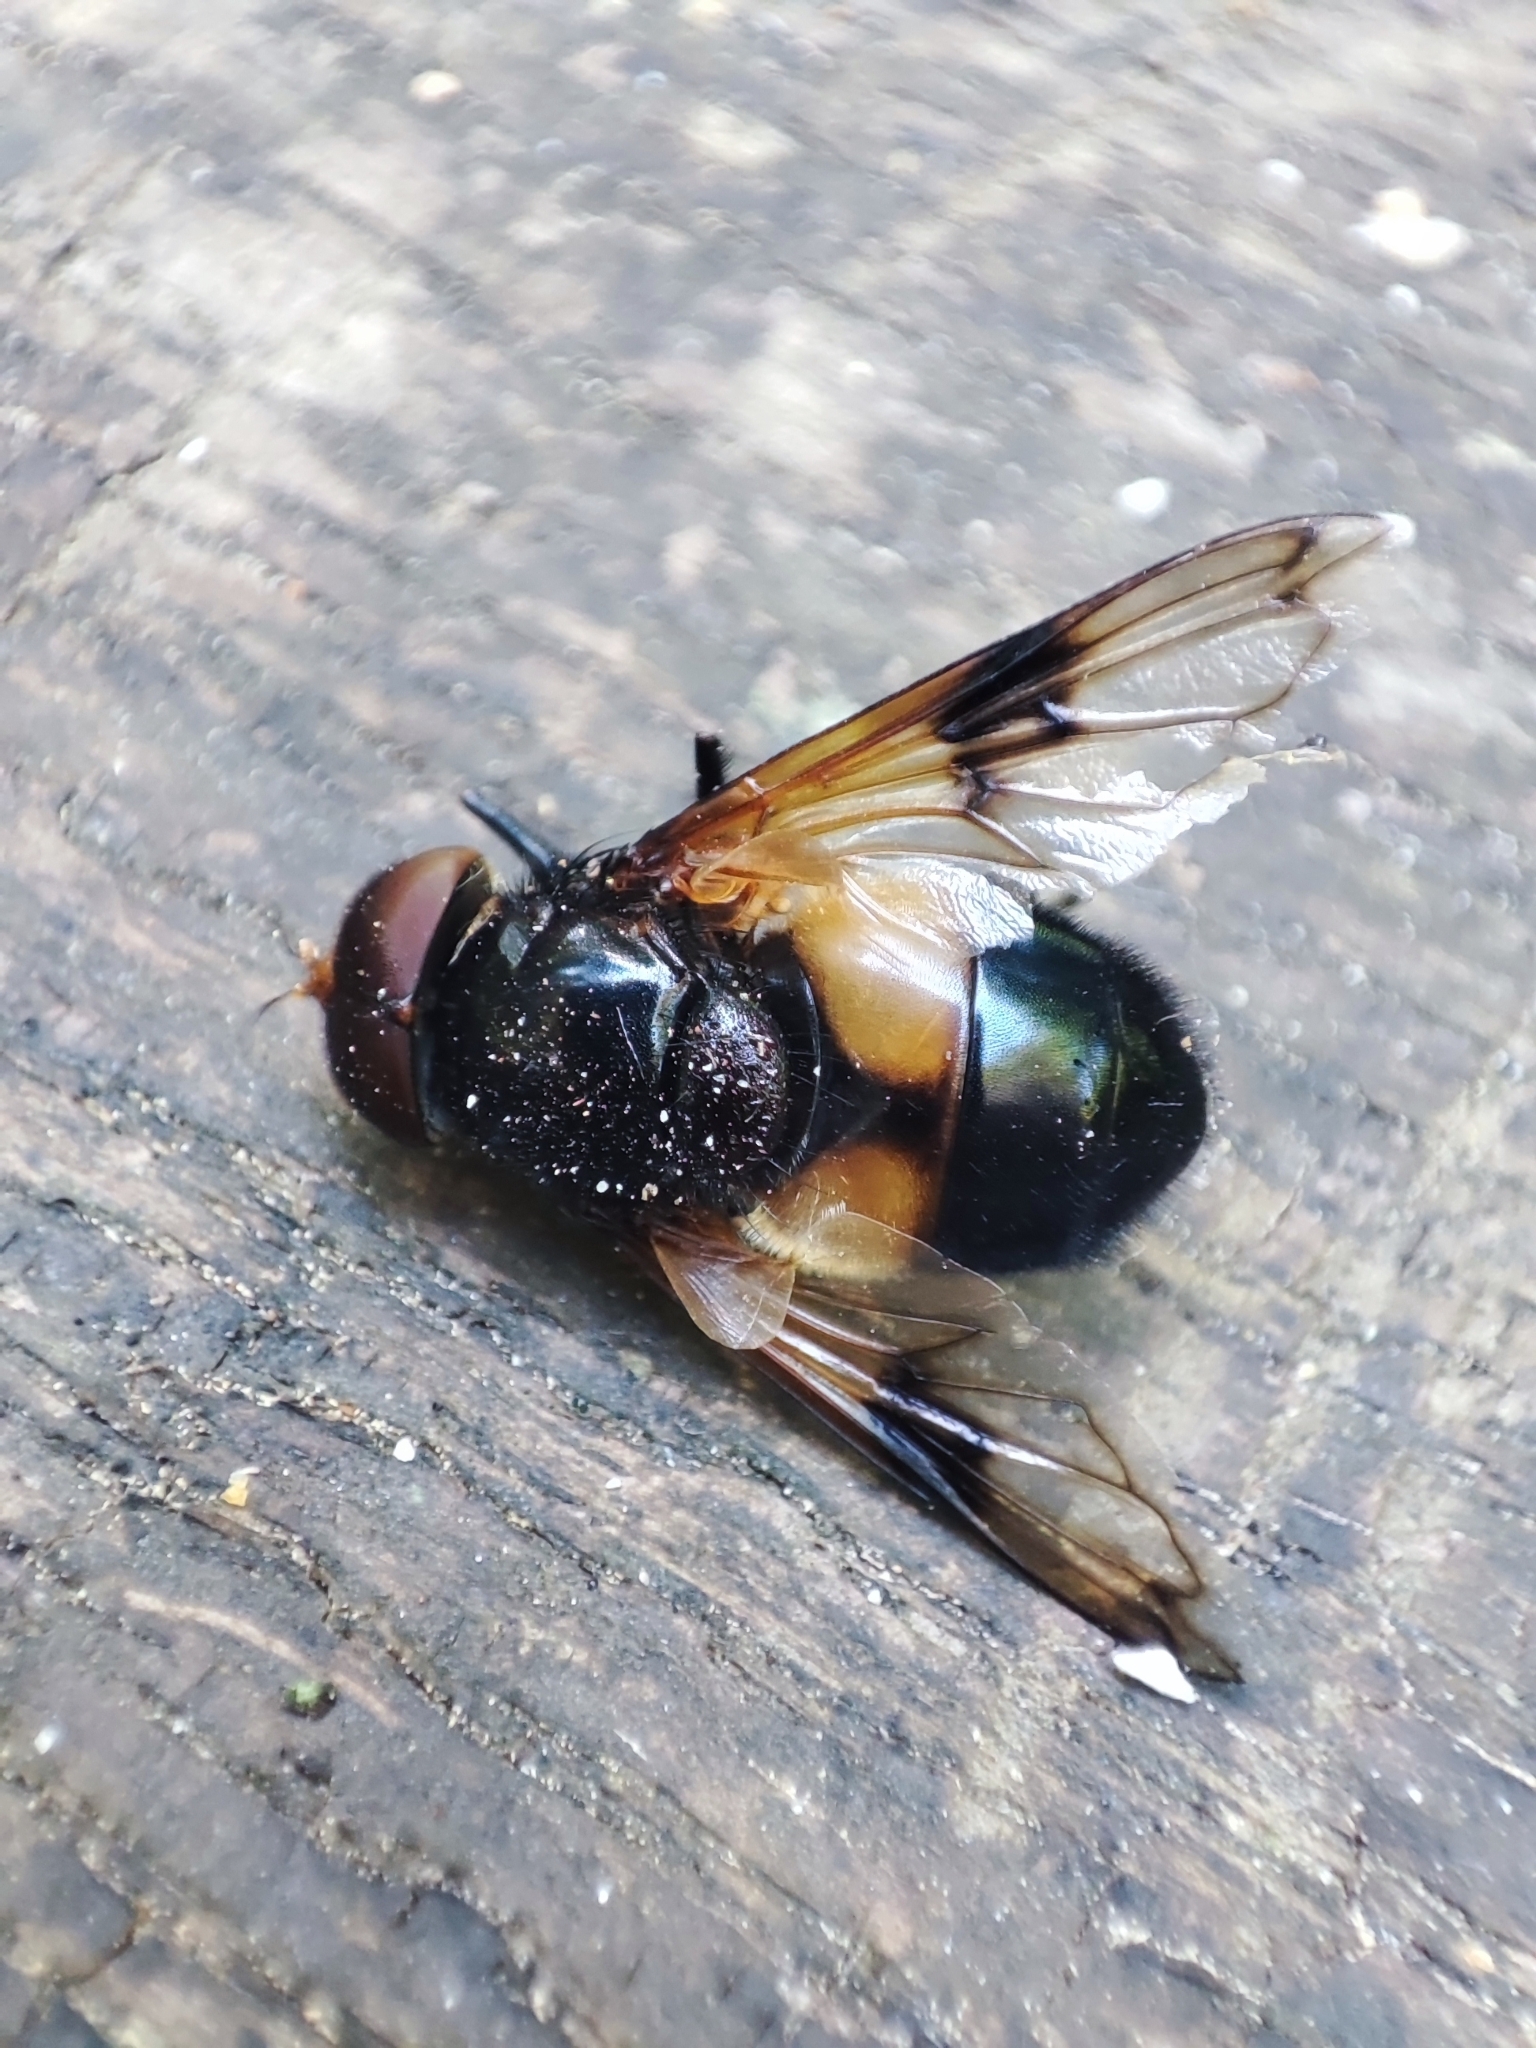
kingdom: Animalia
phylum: Arthropoda
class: Insecta
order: Diptera
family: Syrphidae
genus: Volucella
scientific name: Volucella pellucens
